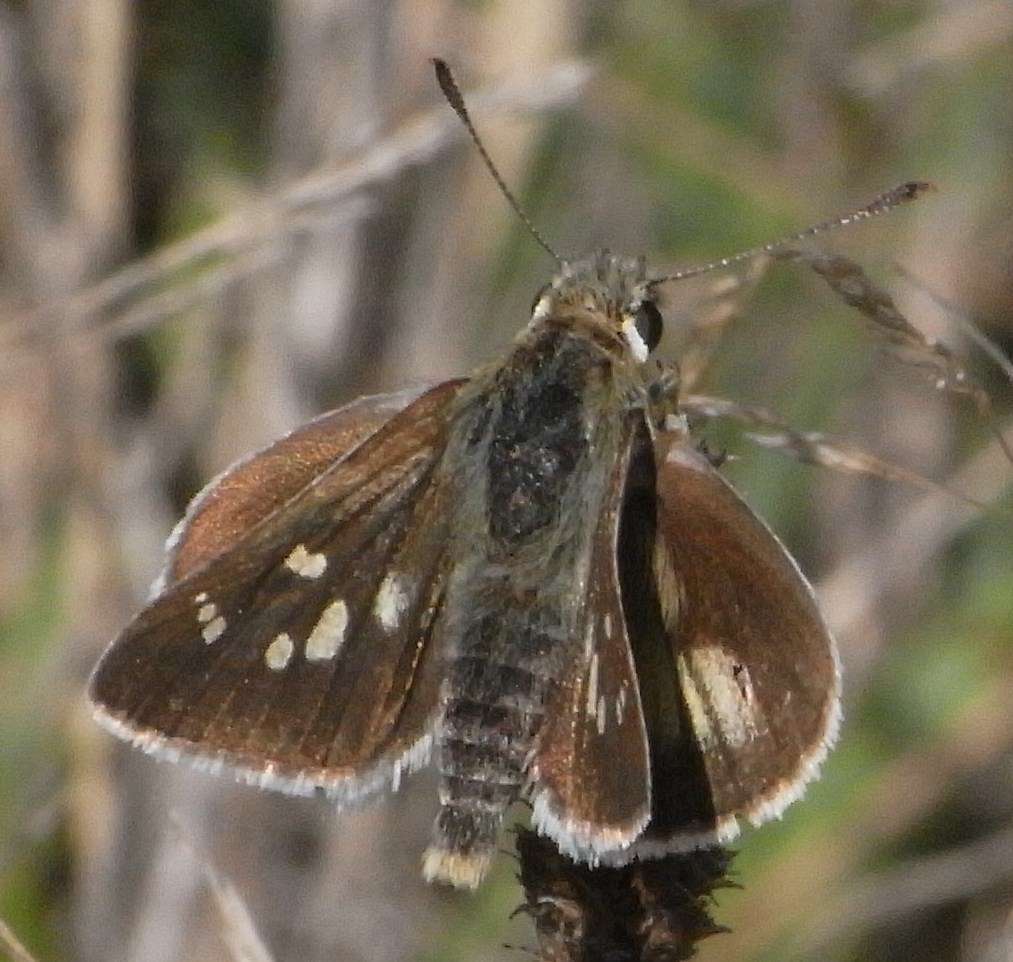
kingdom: Animalia
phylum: Arthropoda
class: Insecta
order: Lepidoptera
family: Hesperiidae
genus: Trapezites
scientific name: Trapezites lutea
